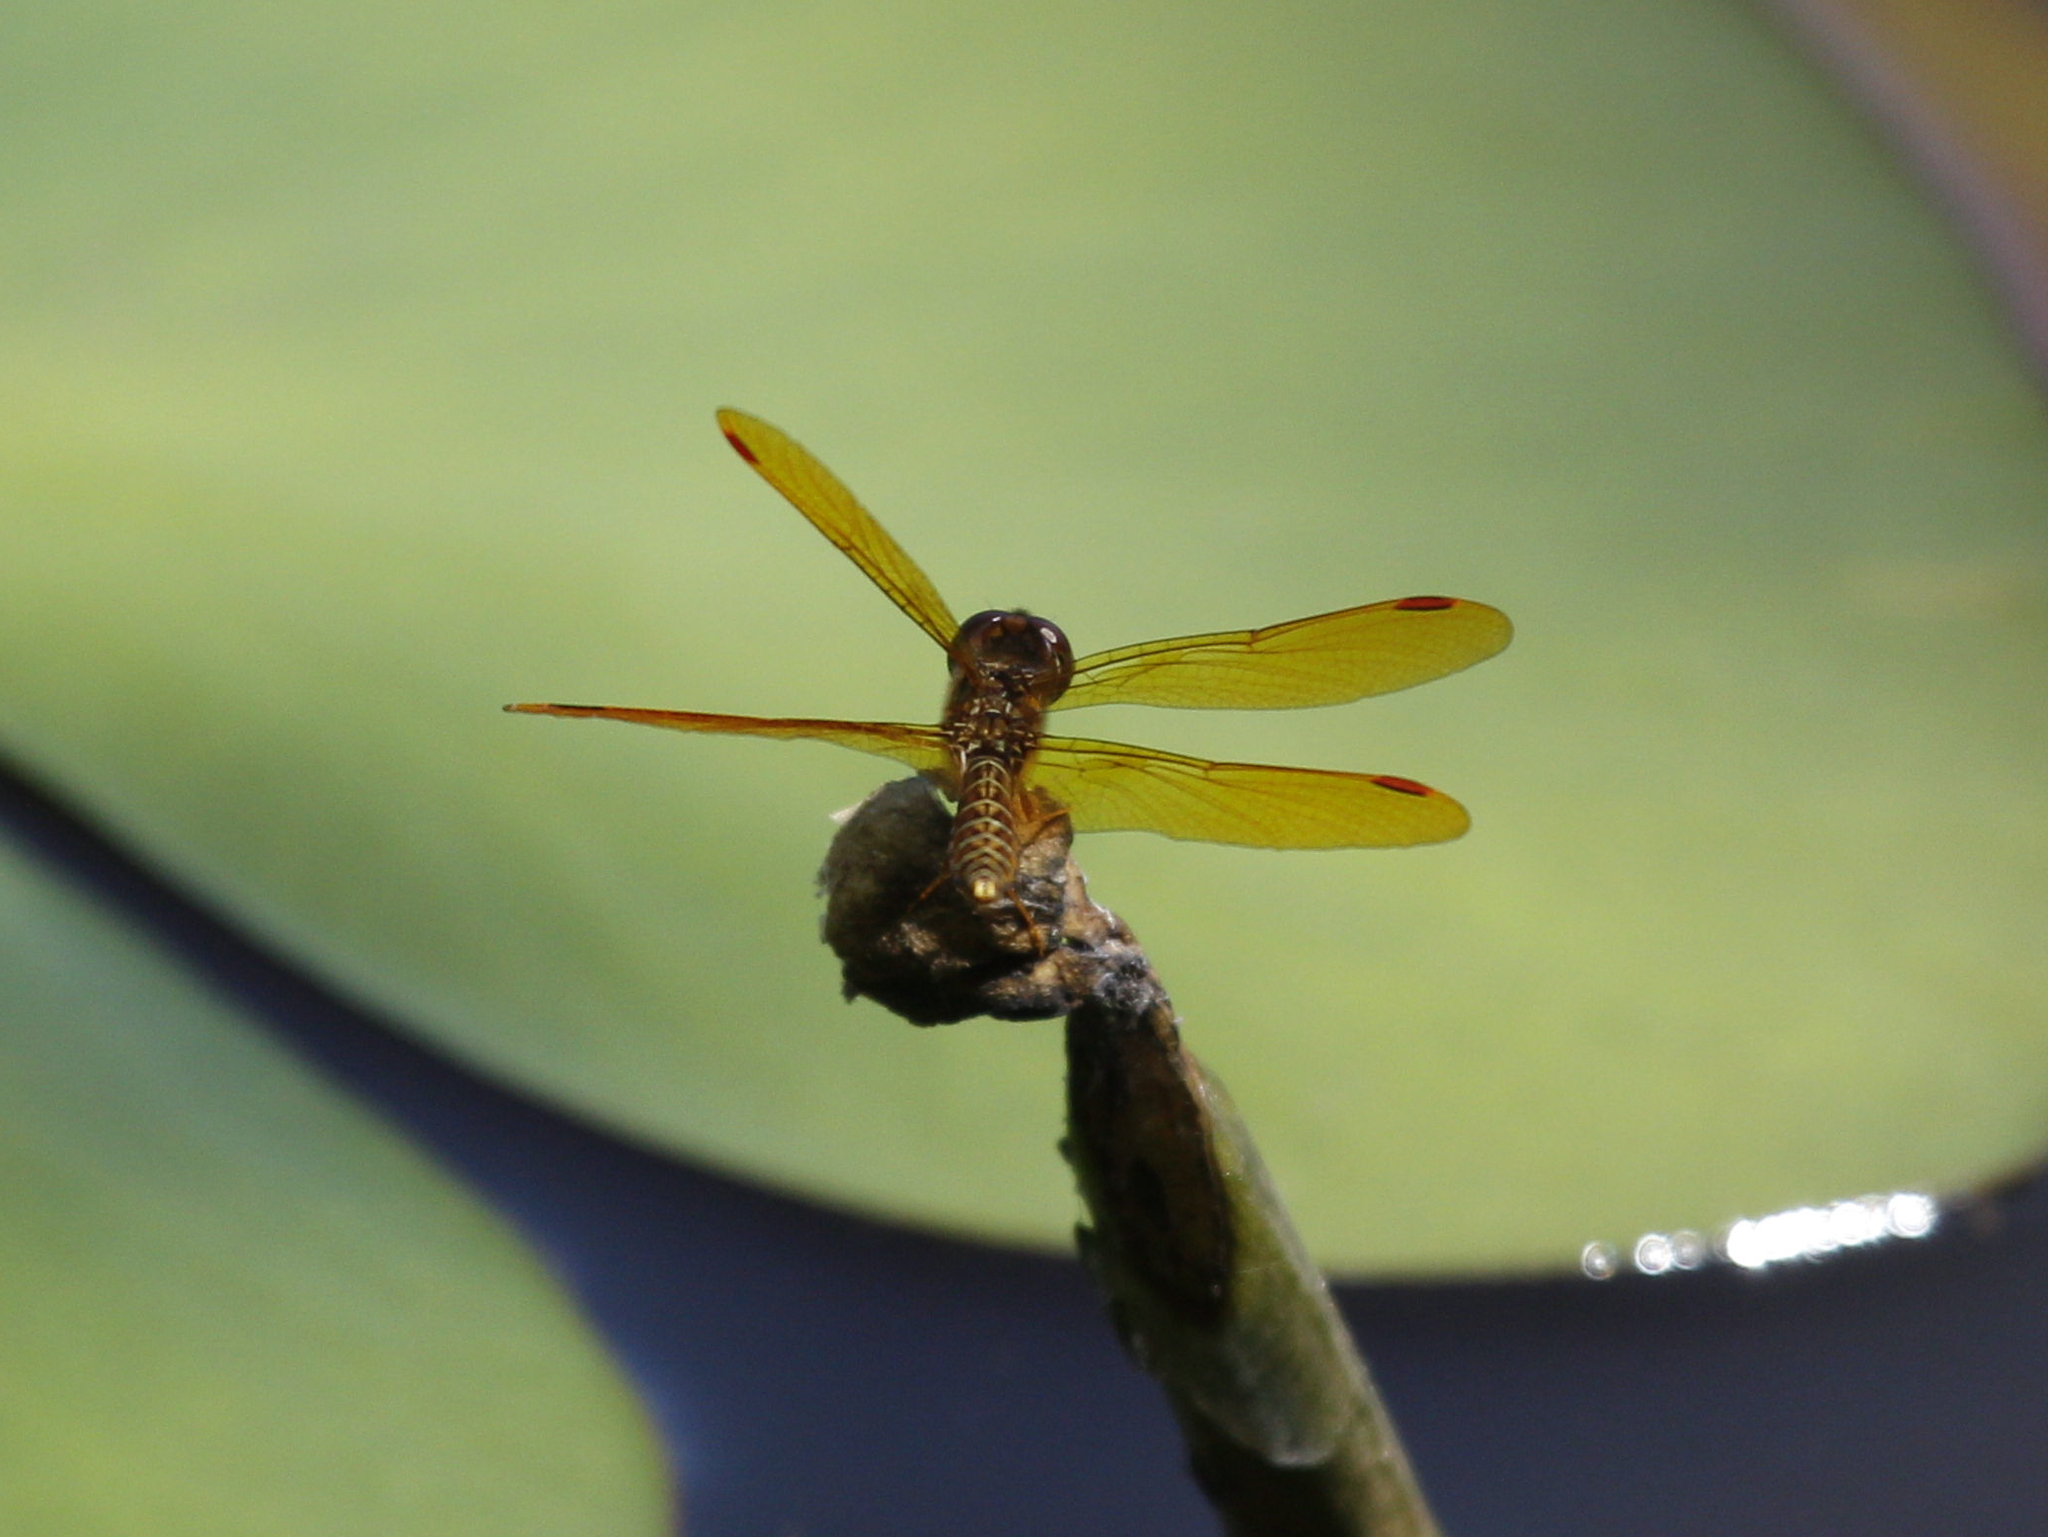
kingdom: Animalia
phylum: Arthropoda
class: Insecta
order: Odonata
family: Libellulidae
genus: Perithemis
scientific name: Perithemis tenera
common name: Eastern amberwing
